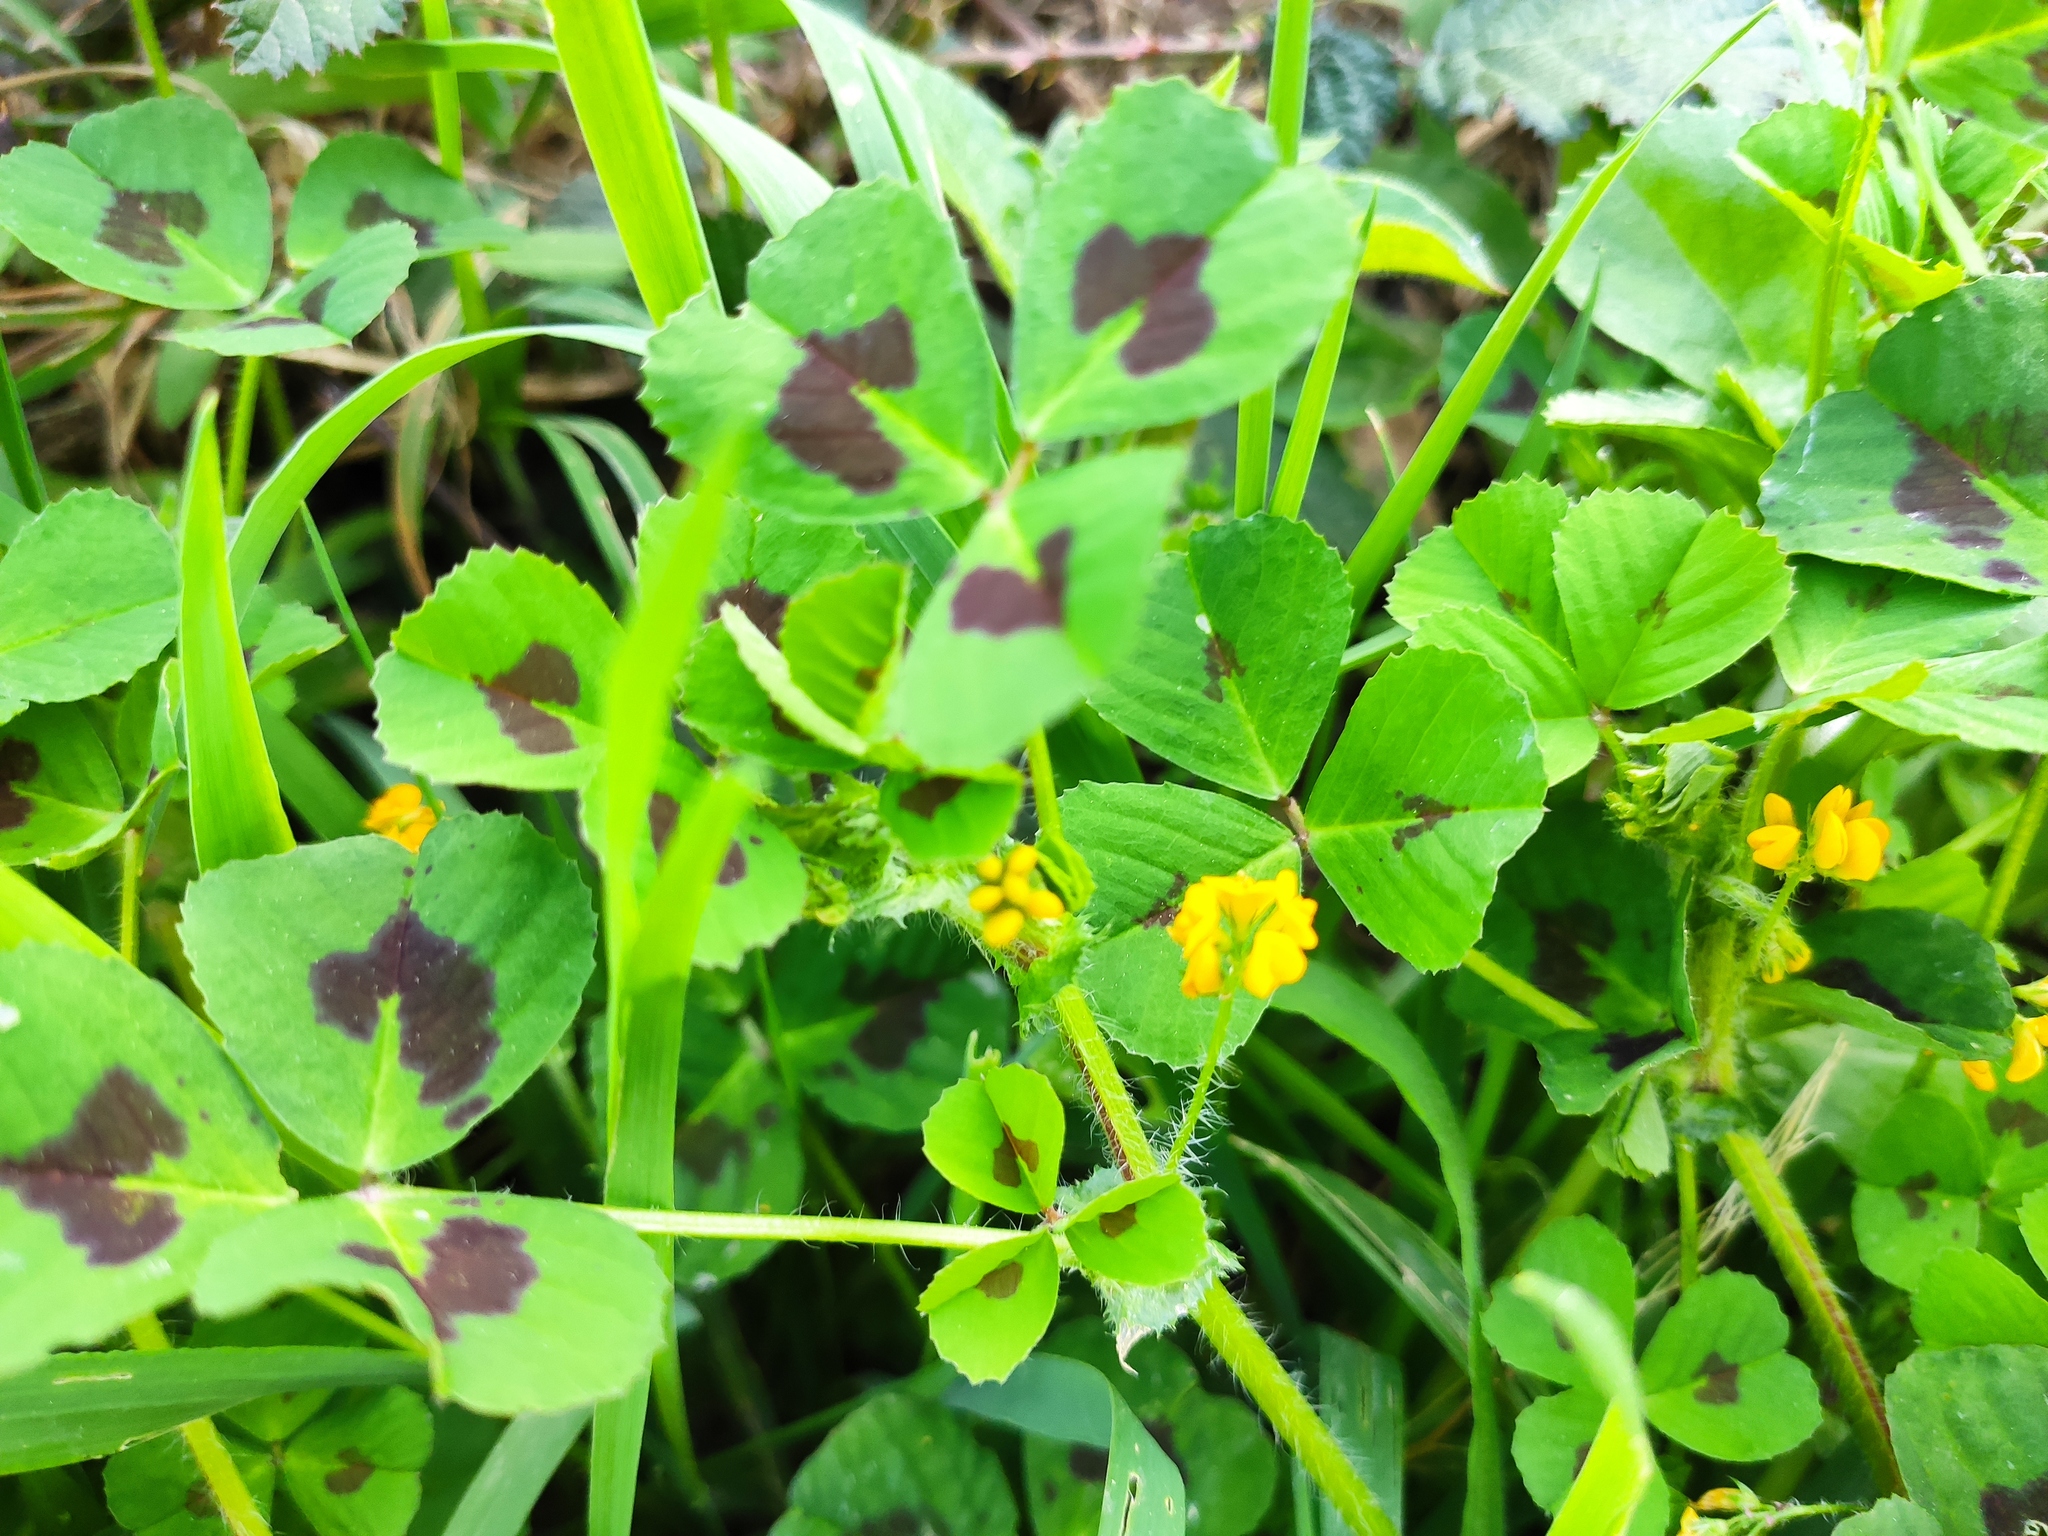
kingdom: Plantae
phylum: Tracheophyta
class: Magnoliopsida
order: Fabales
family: Fabaceae
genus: Medicago
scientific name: Medicago arabica
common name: Spotted medick
